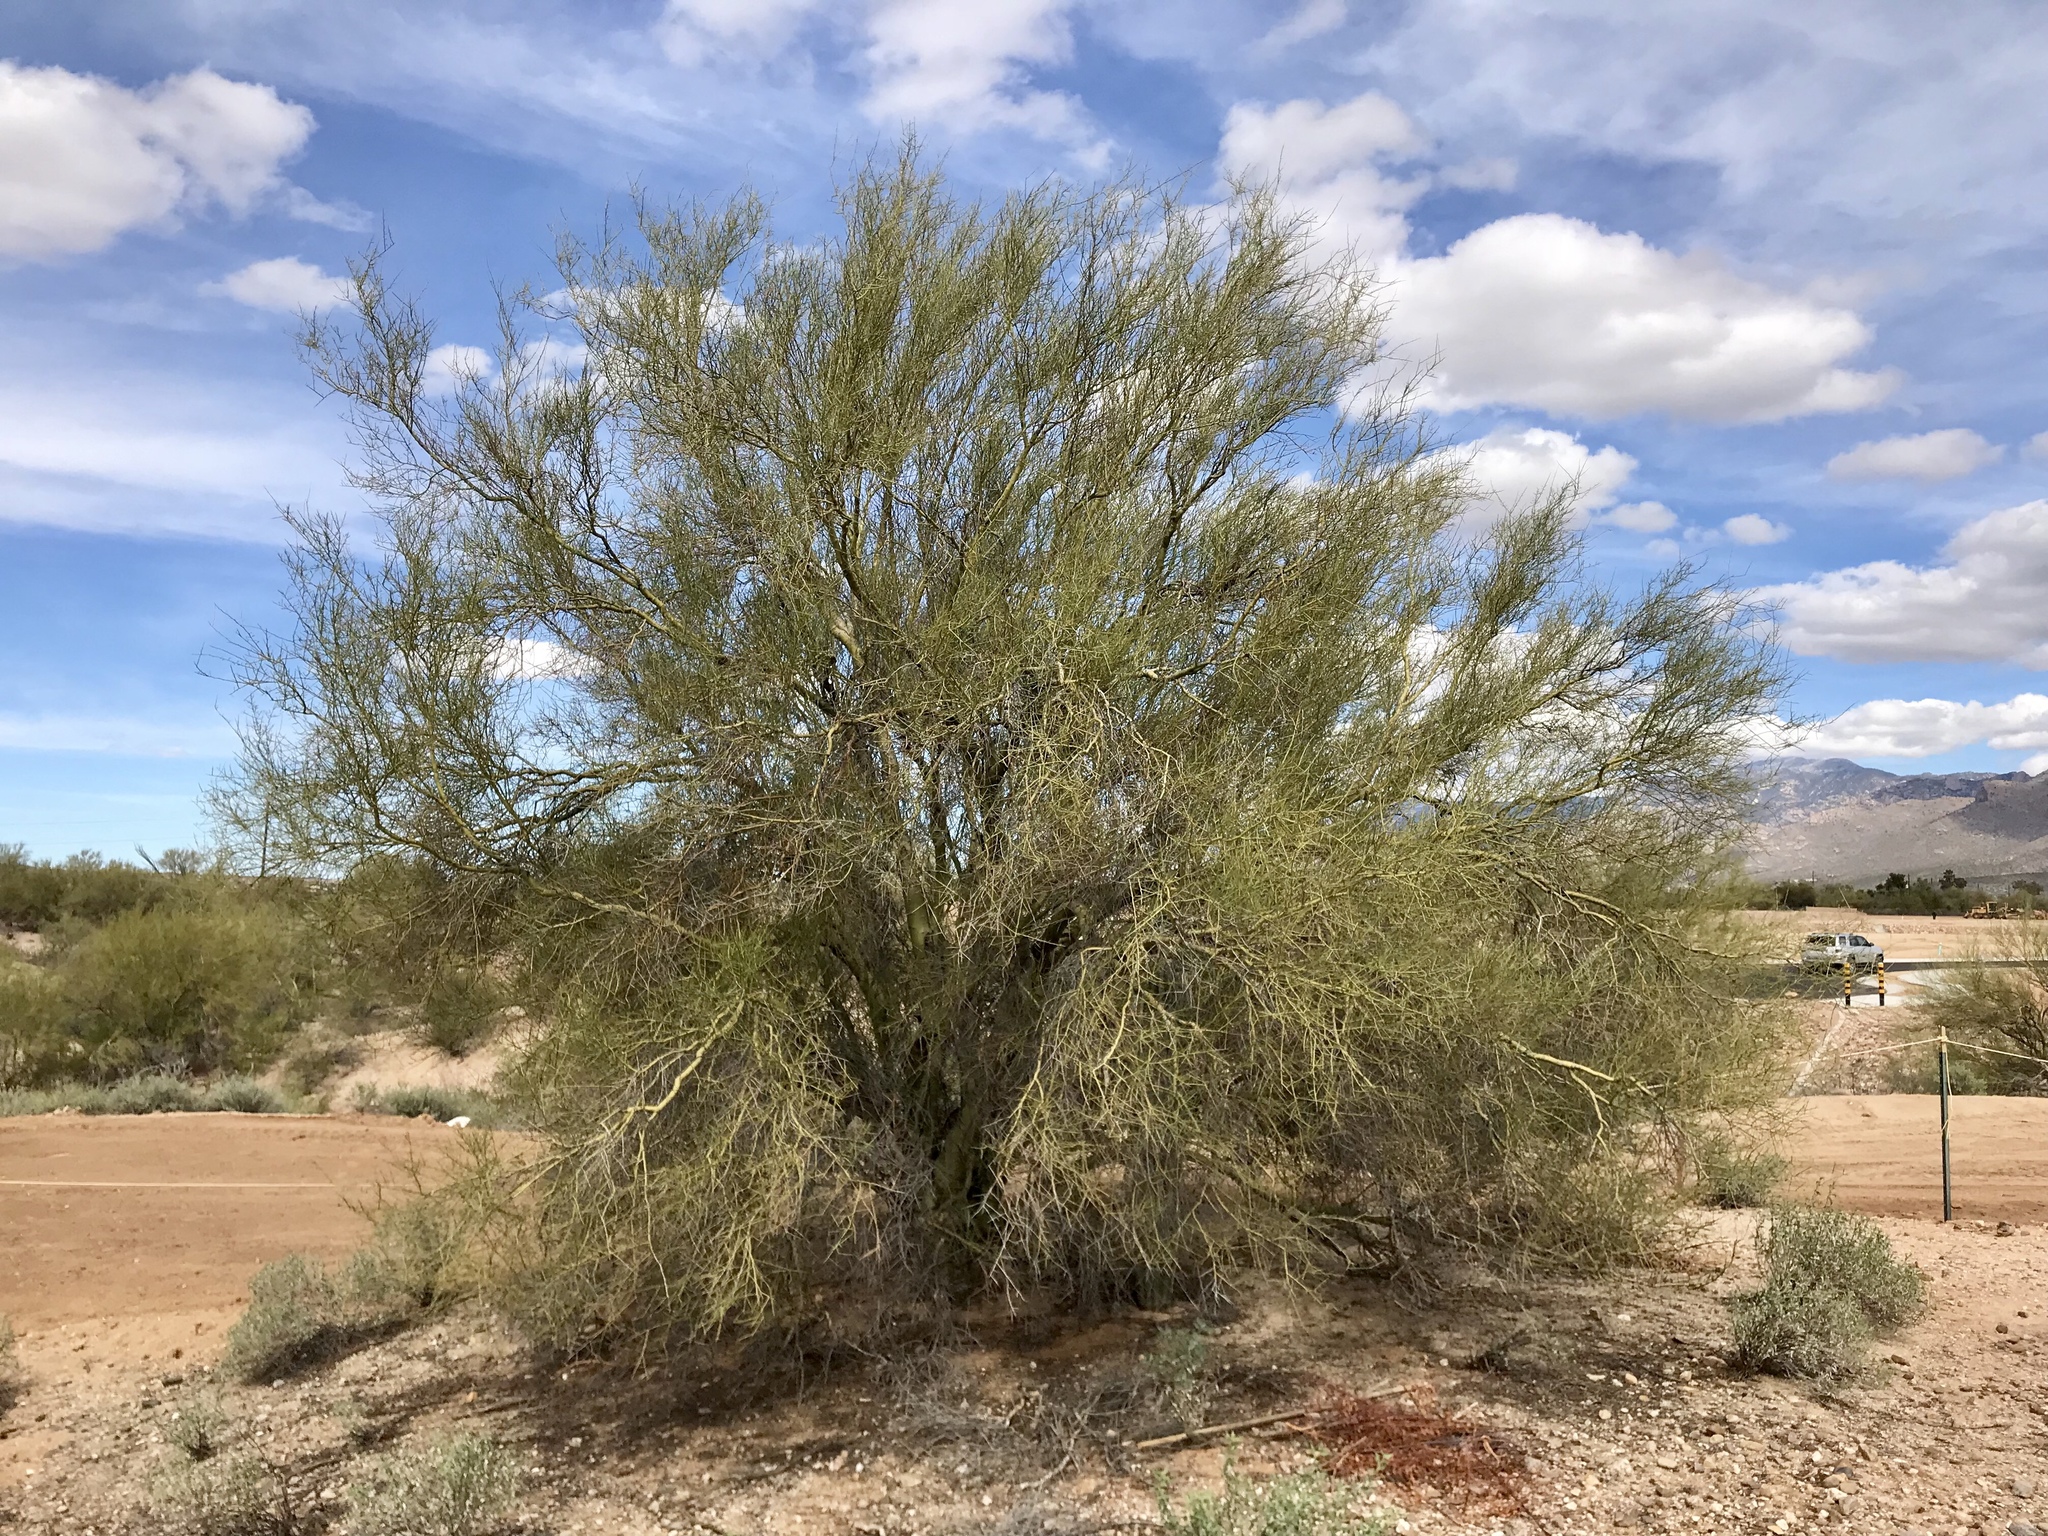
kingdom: Plantae
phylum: Tracheophyta
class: Magnoliopsida
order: Fabales
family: Fabaceae
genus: Parkinsonia
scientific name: Parkinsonia microphylla
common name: Yellow paloverde
